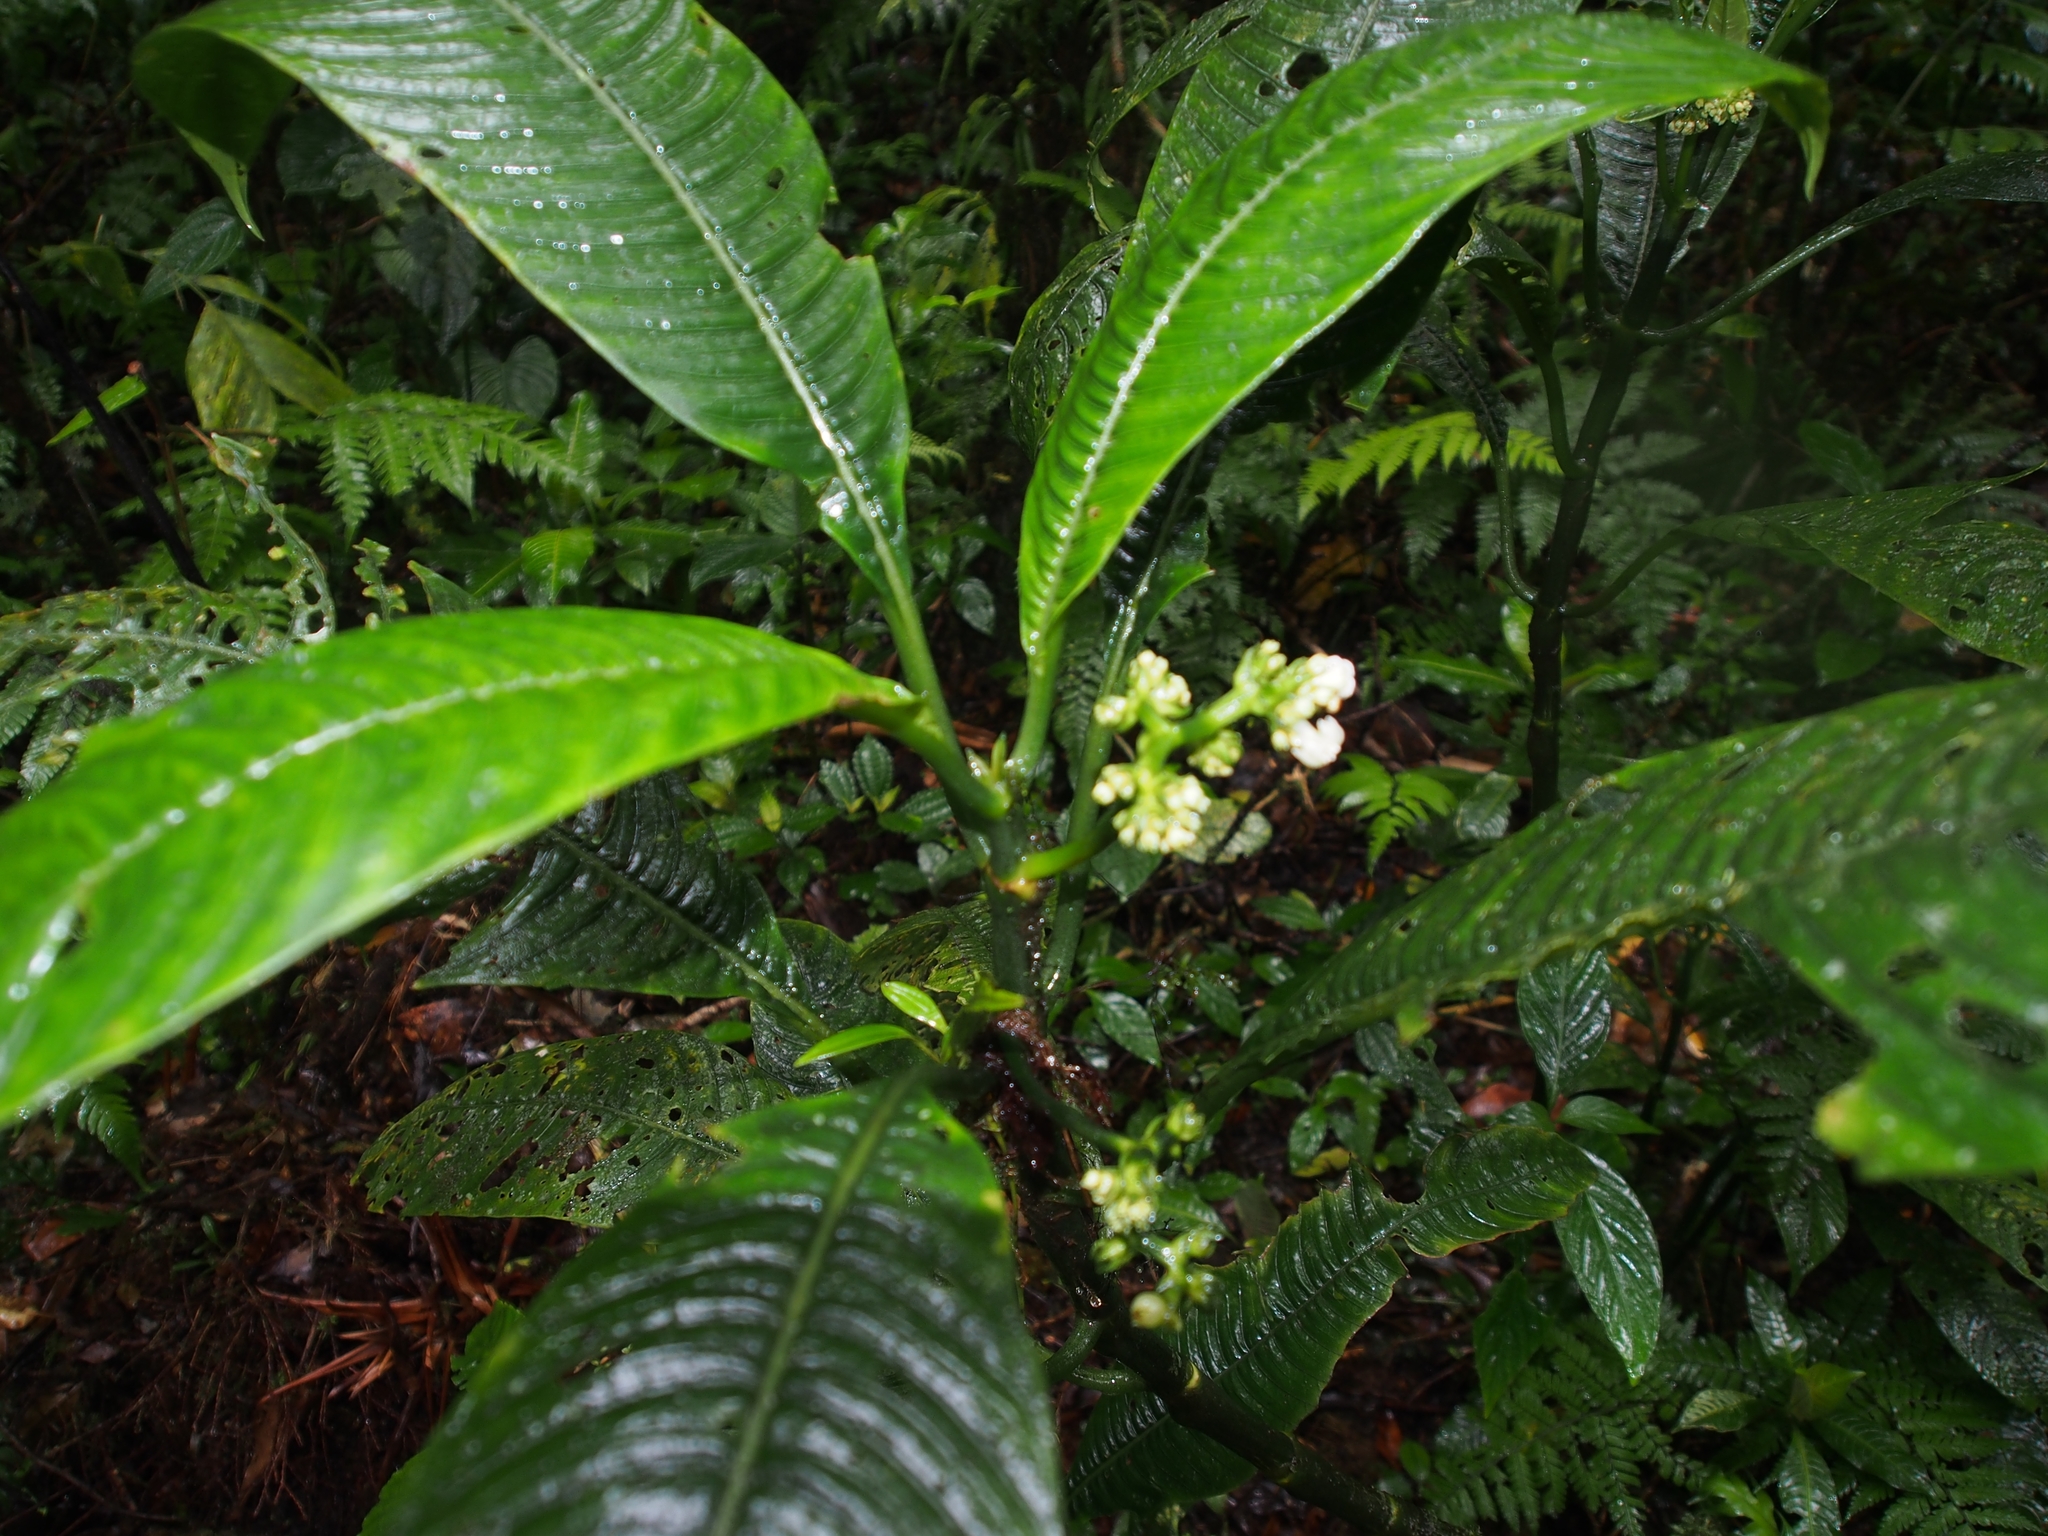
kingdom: Plantae
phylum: Tracheophyta
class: Magnoliopsida
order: Gentianales
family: Rubiaceae
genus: Notopleura
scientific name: Notopleura aggregata
